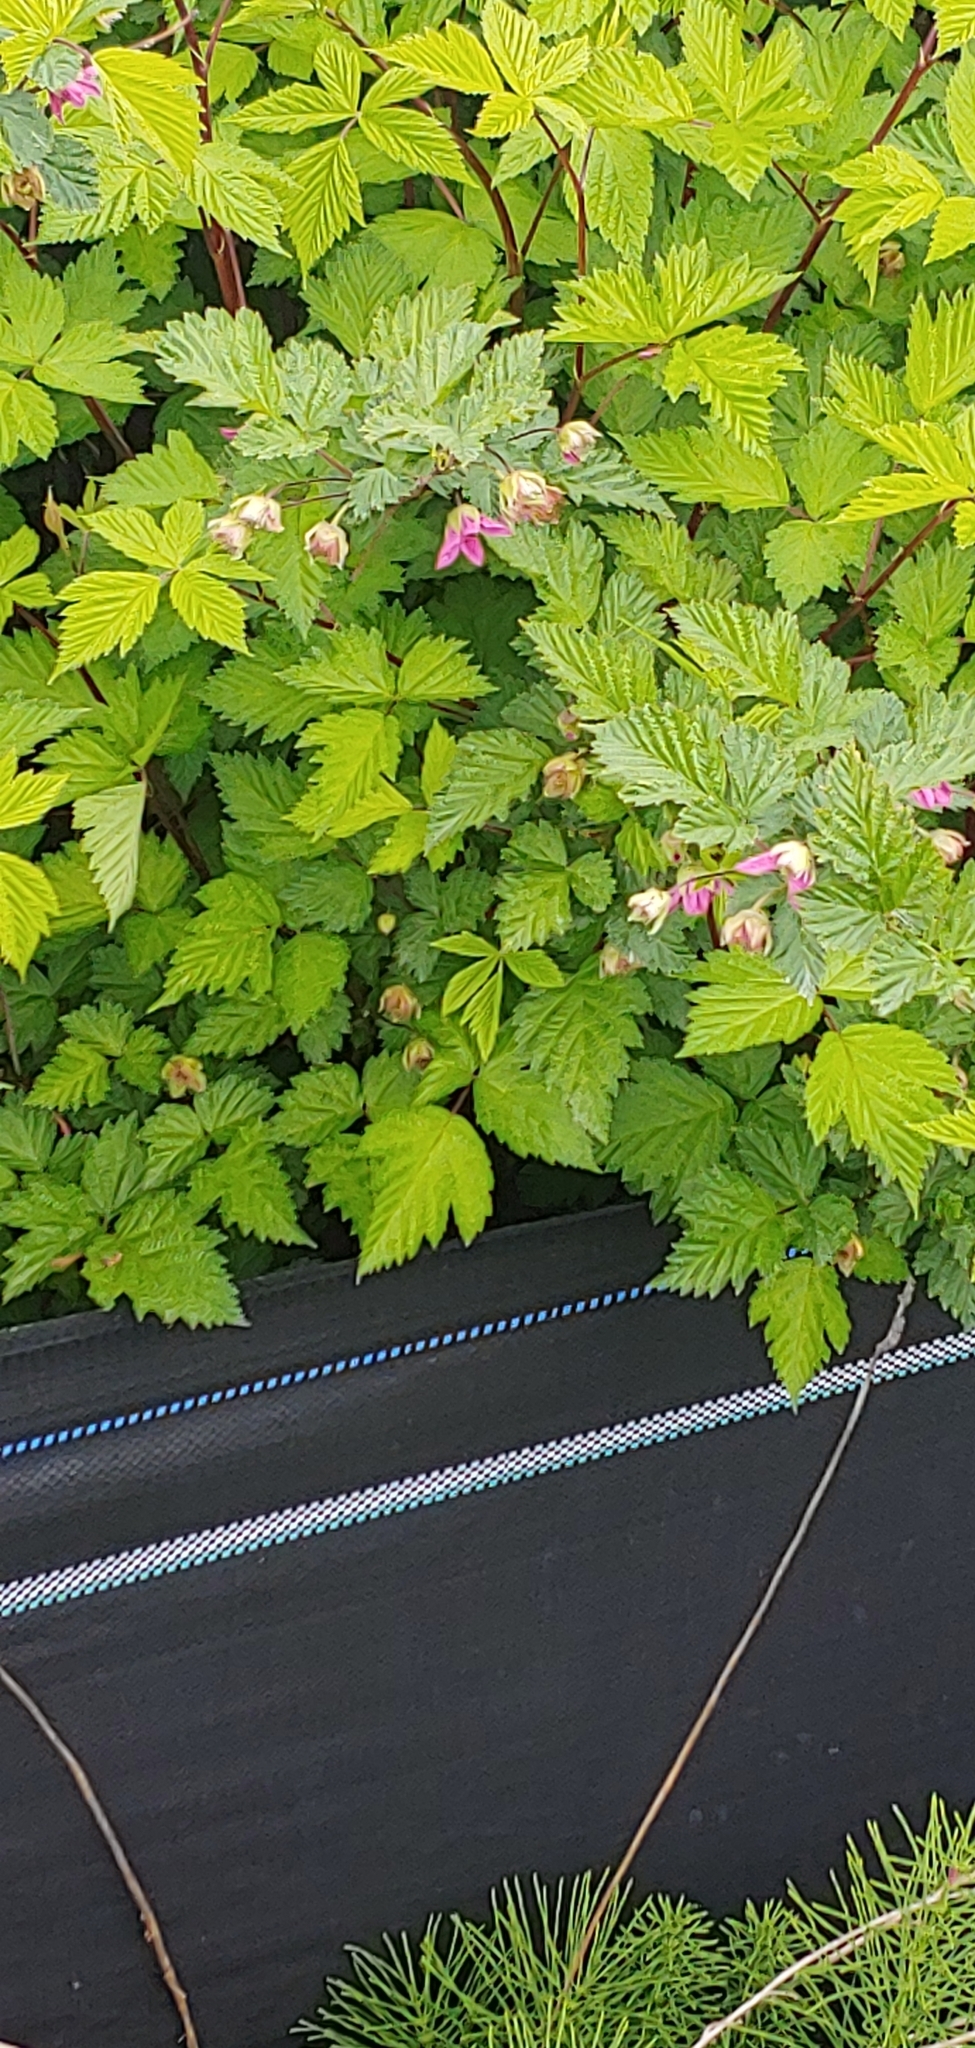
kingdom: Plantae
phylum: Tracheophyta
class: Magnoliopsida
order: Rosales
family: Rosaceae
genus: Rubus
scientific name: Rubus spectabilis
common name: Salmonberry
